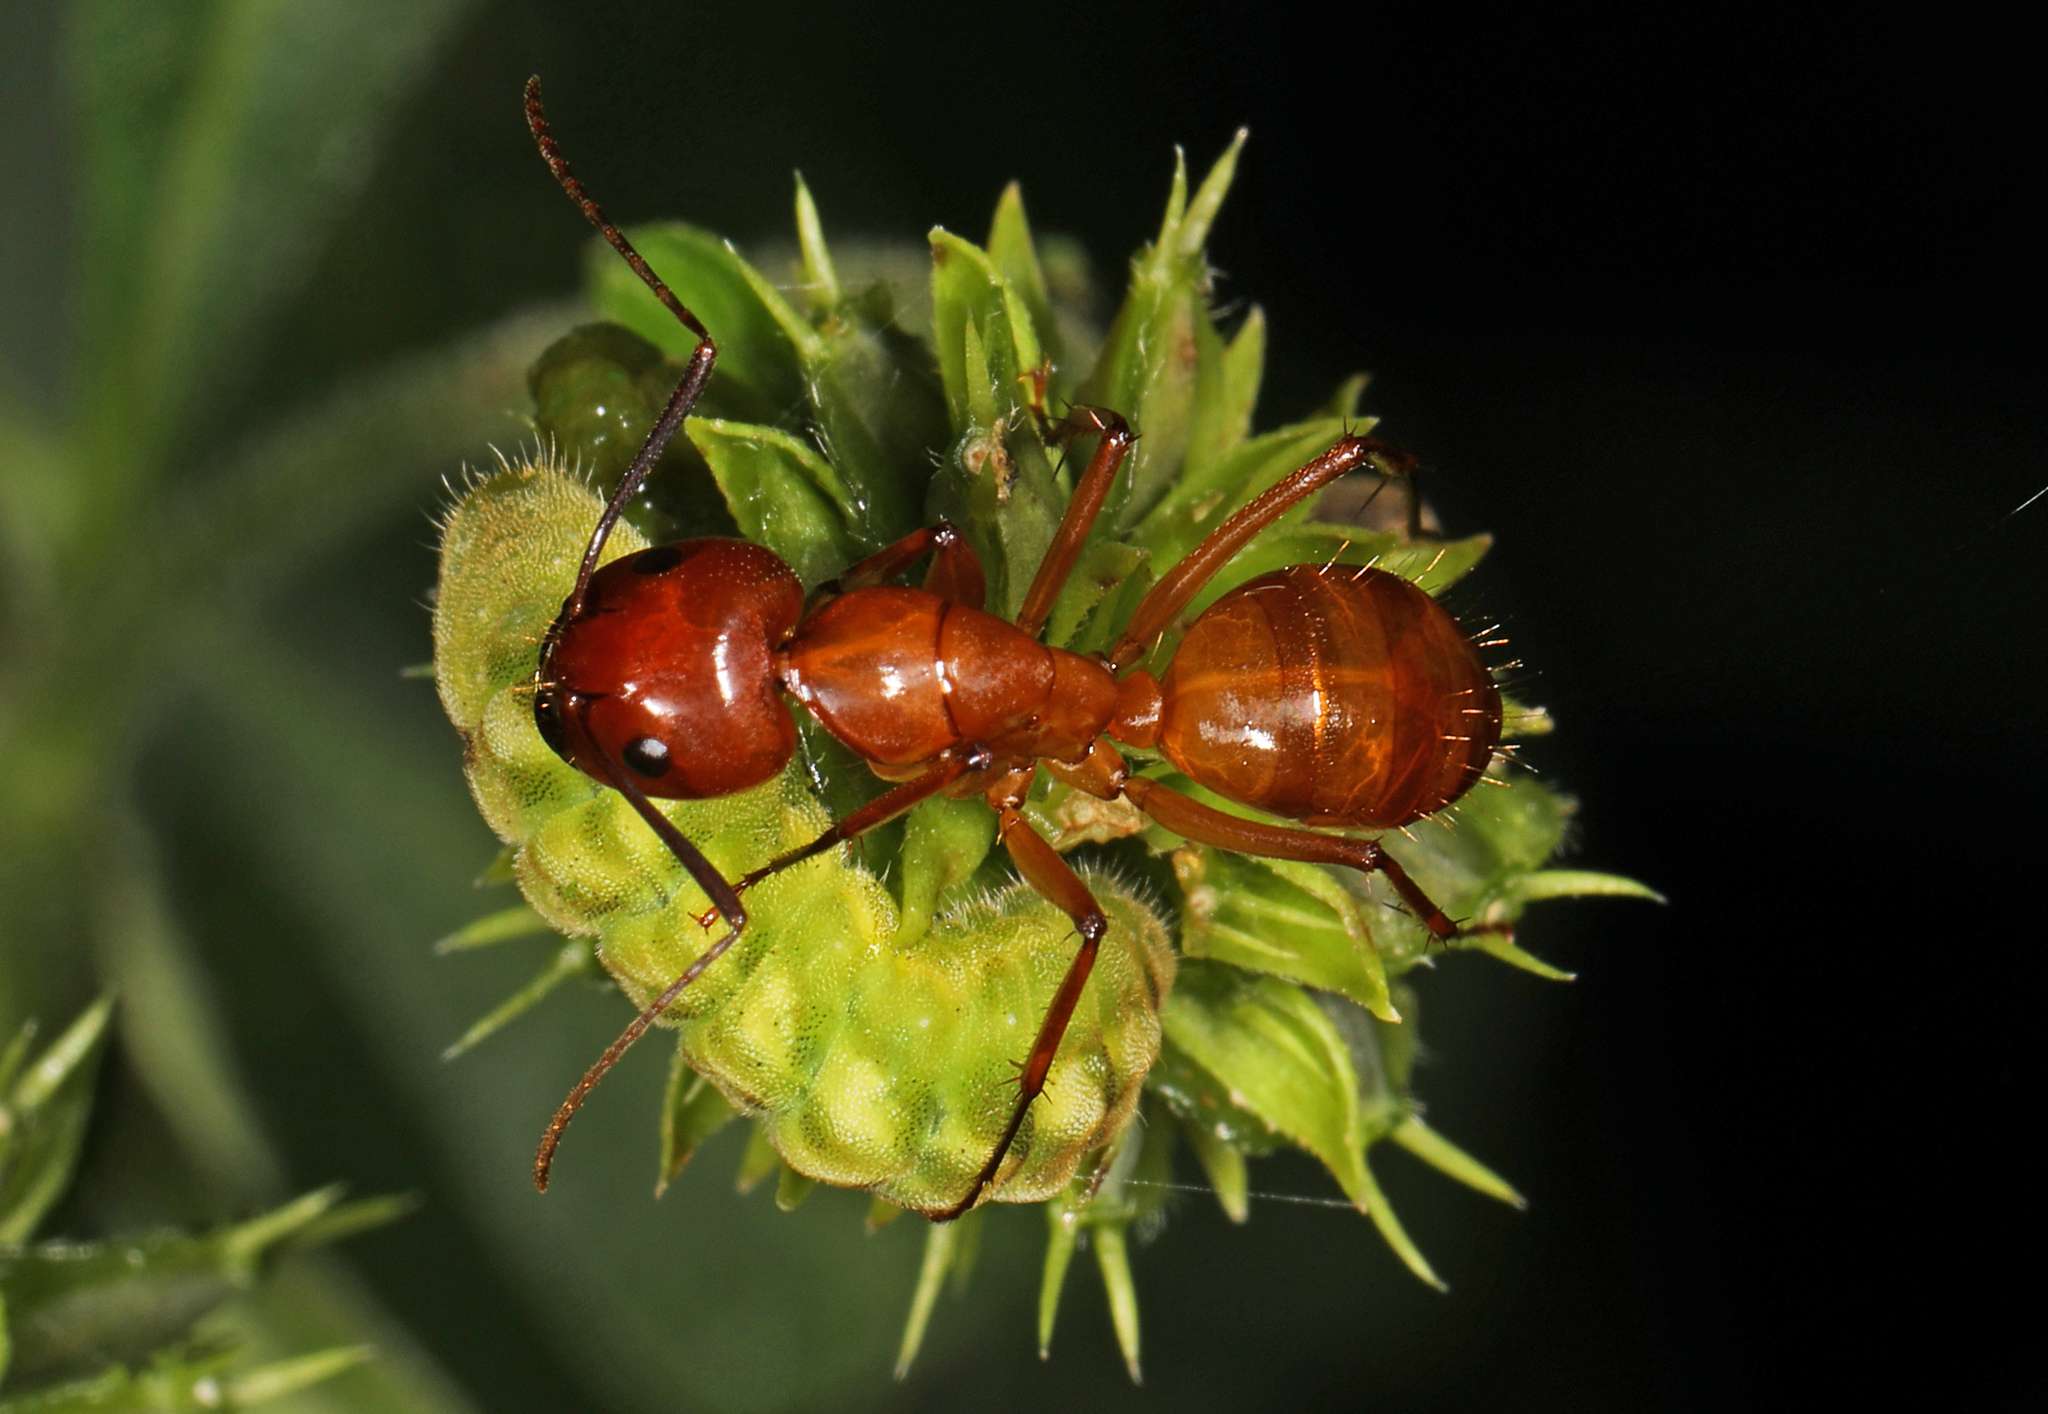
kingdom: Animalia
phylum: Arthropoda
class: Insecta
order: Hymenoptera
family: Formicidae
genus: Camponotus
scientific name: Camponotus castaneus
